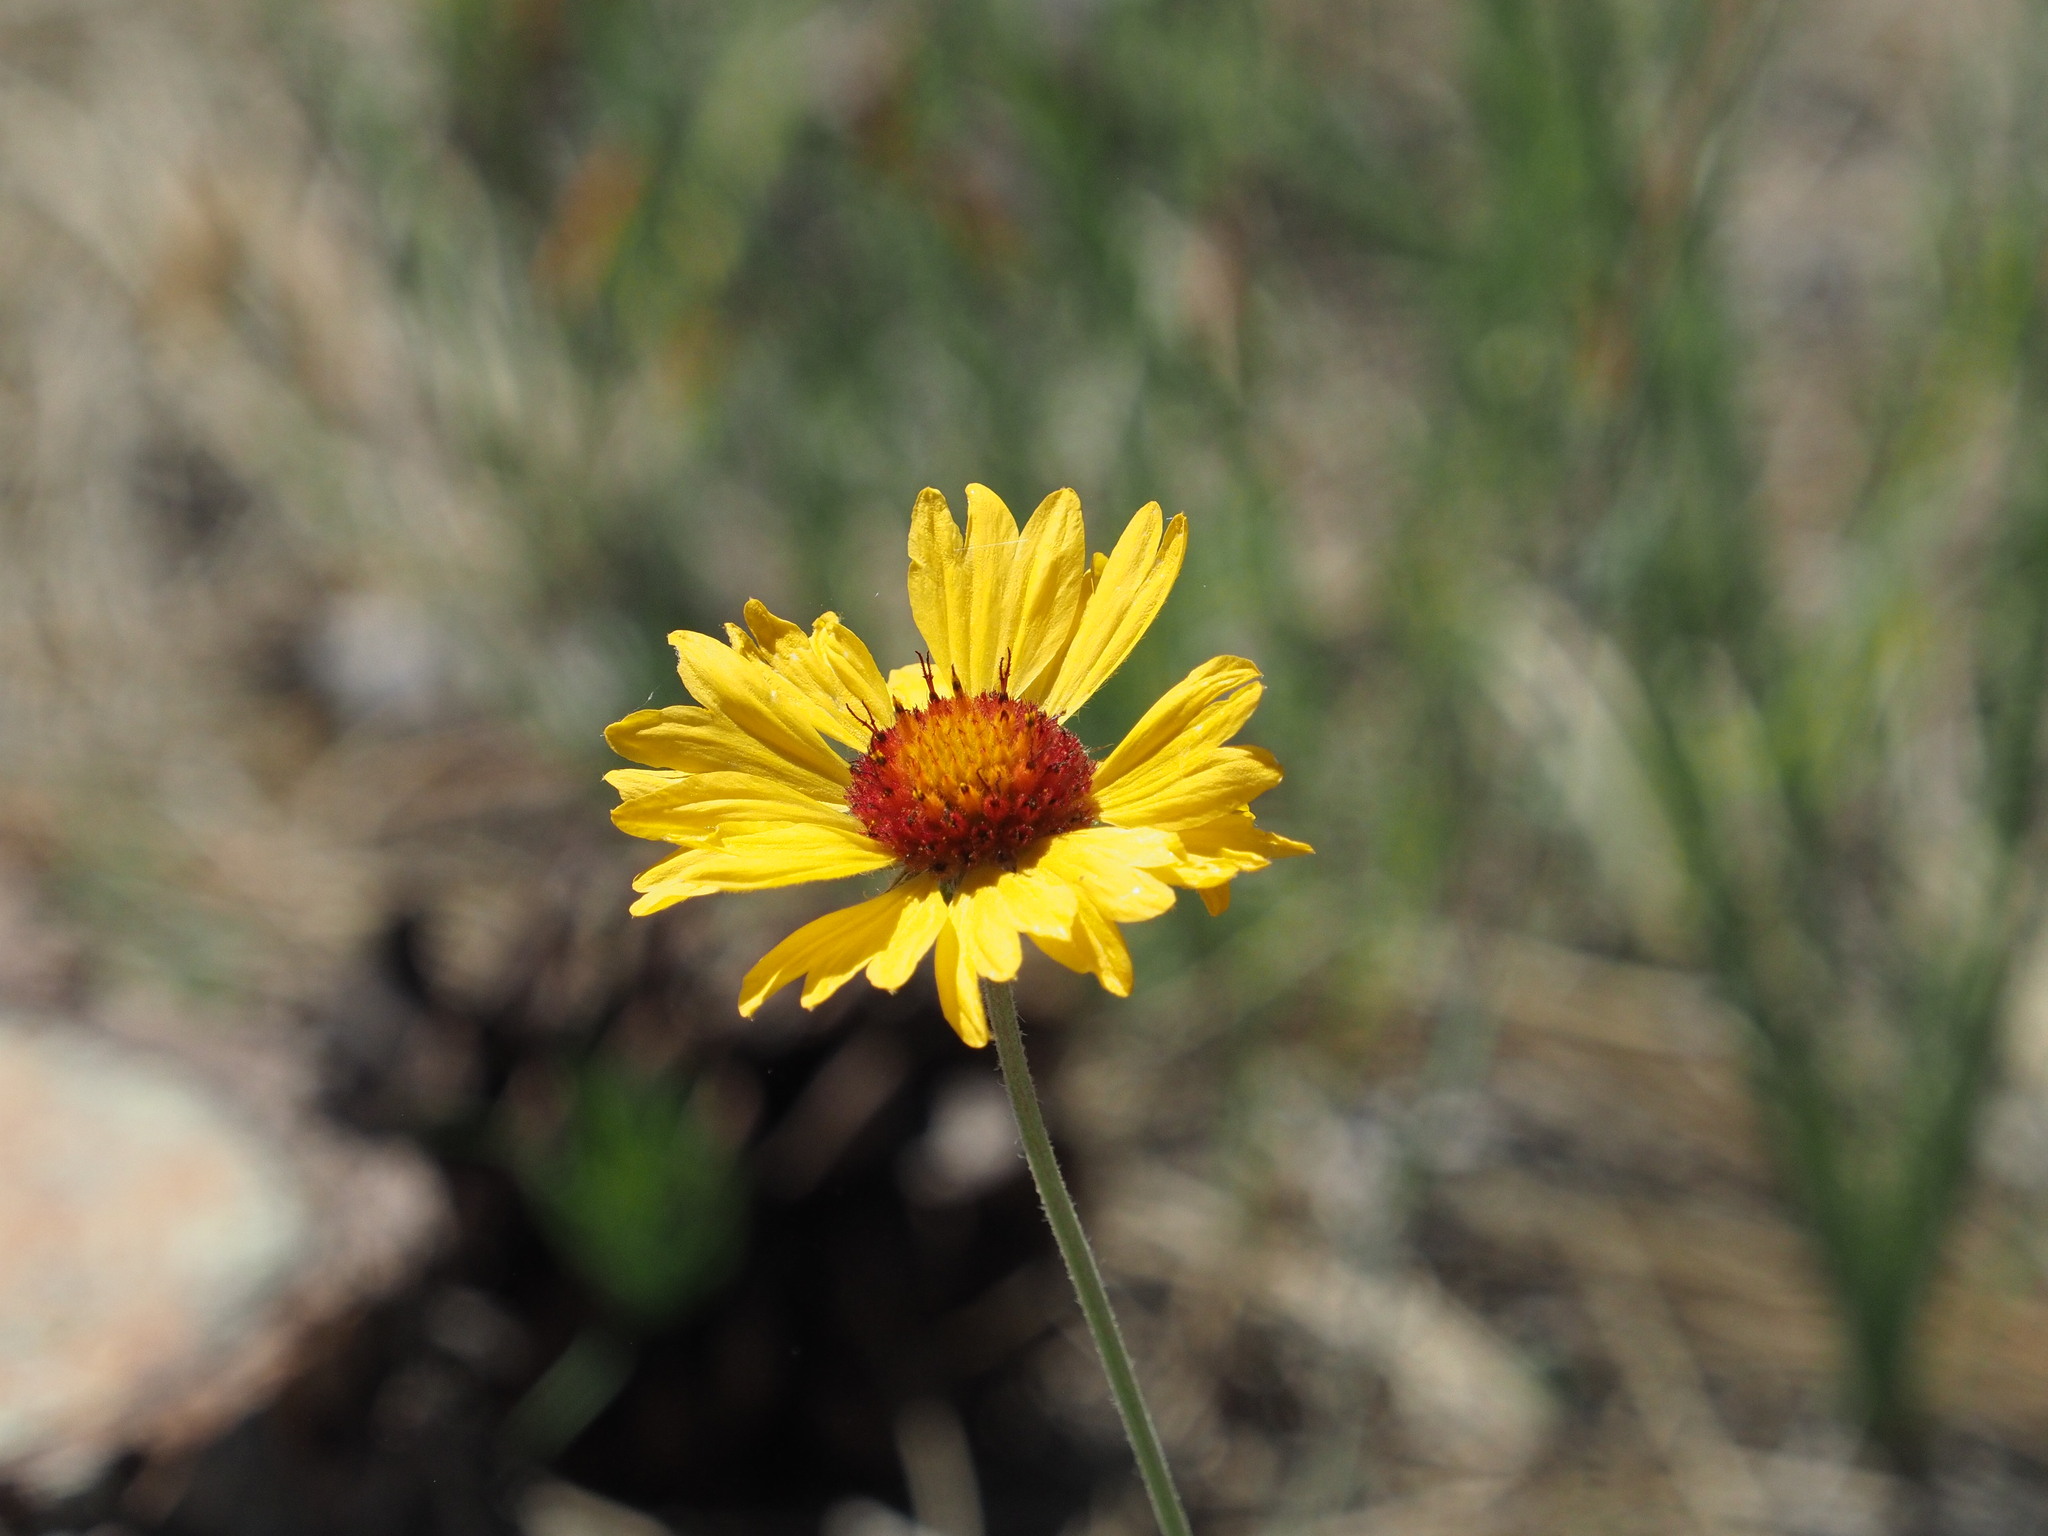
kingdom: Plantae
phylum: Tracheophyta
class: Magnoliopsida
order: Asterales
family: Asteraceae
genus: Gaillardia
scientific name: Gaillardia aristata
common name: Blanket-flower
